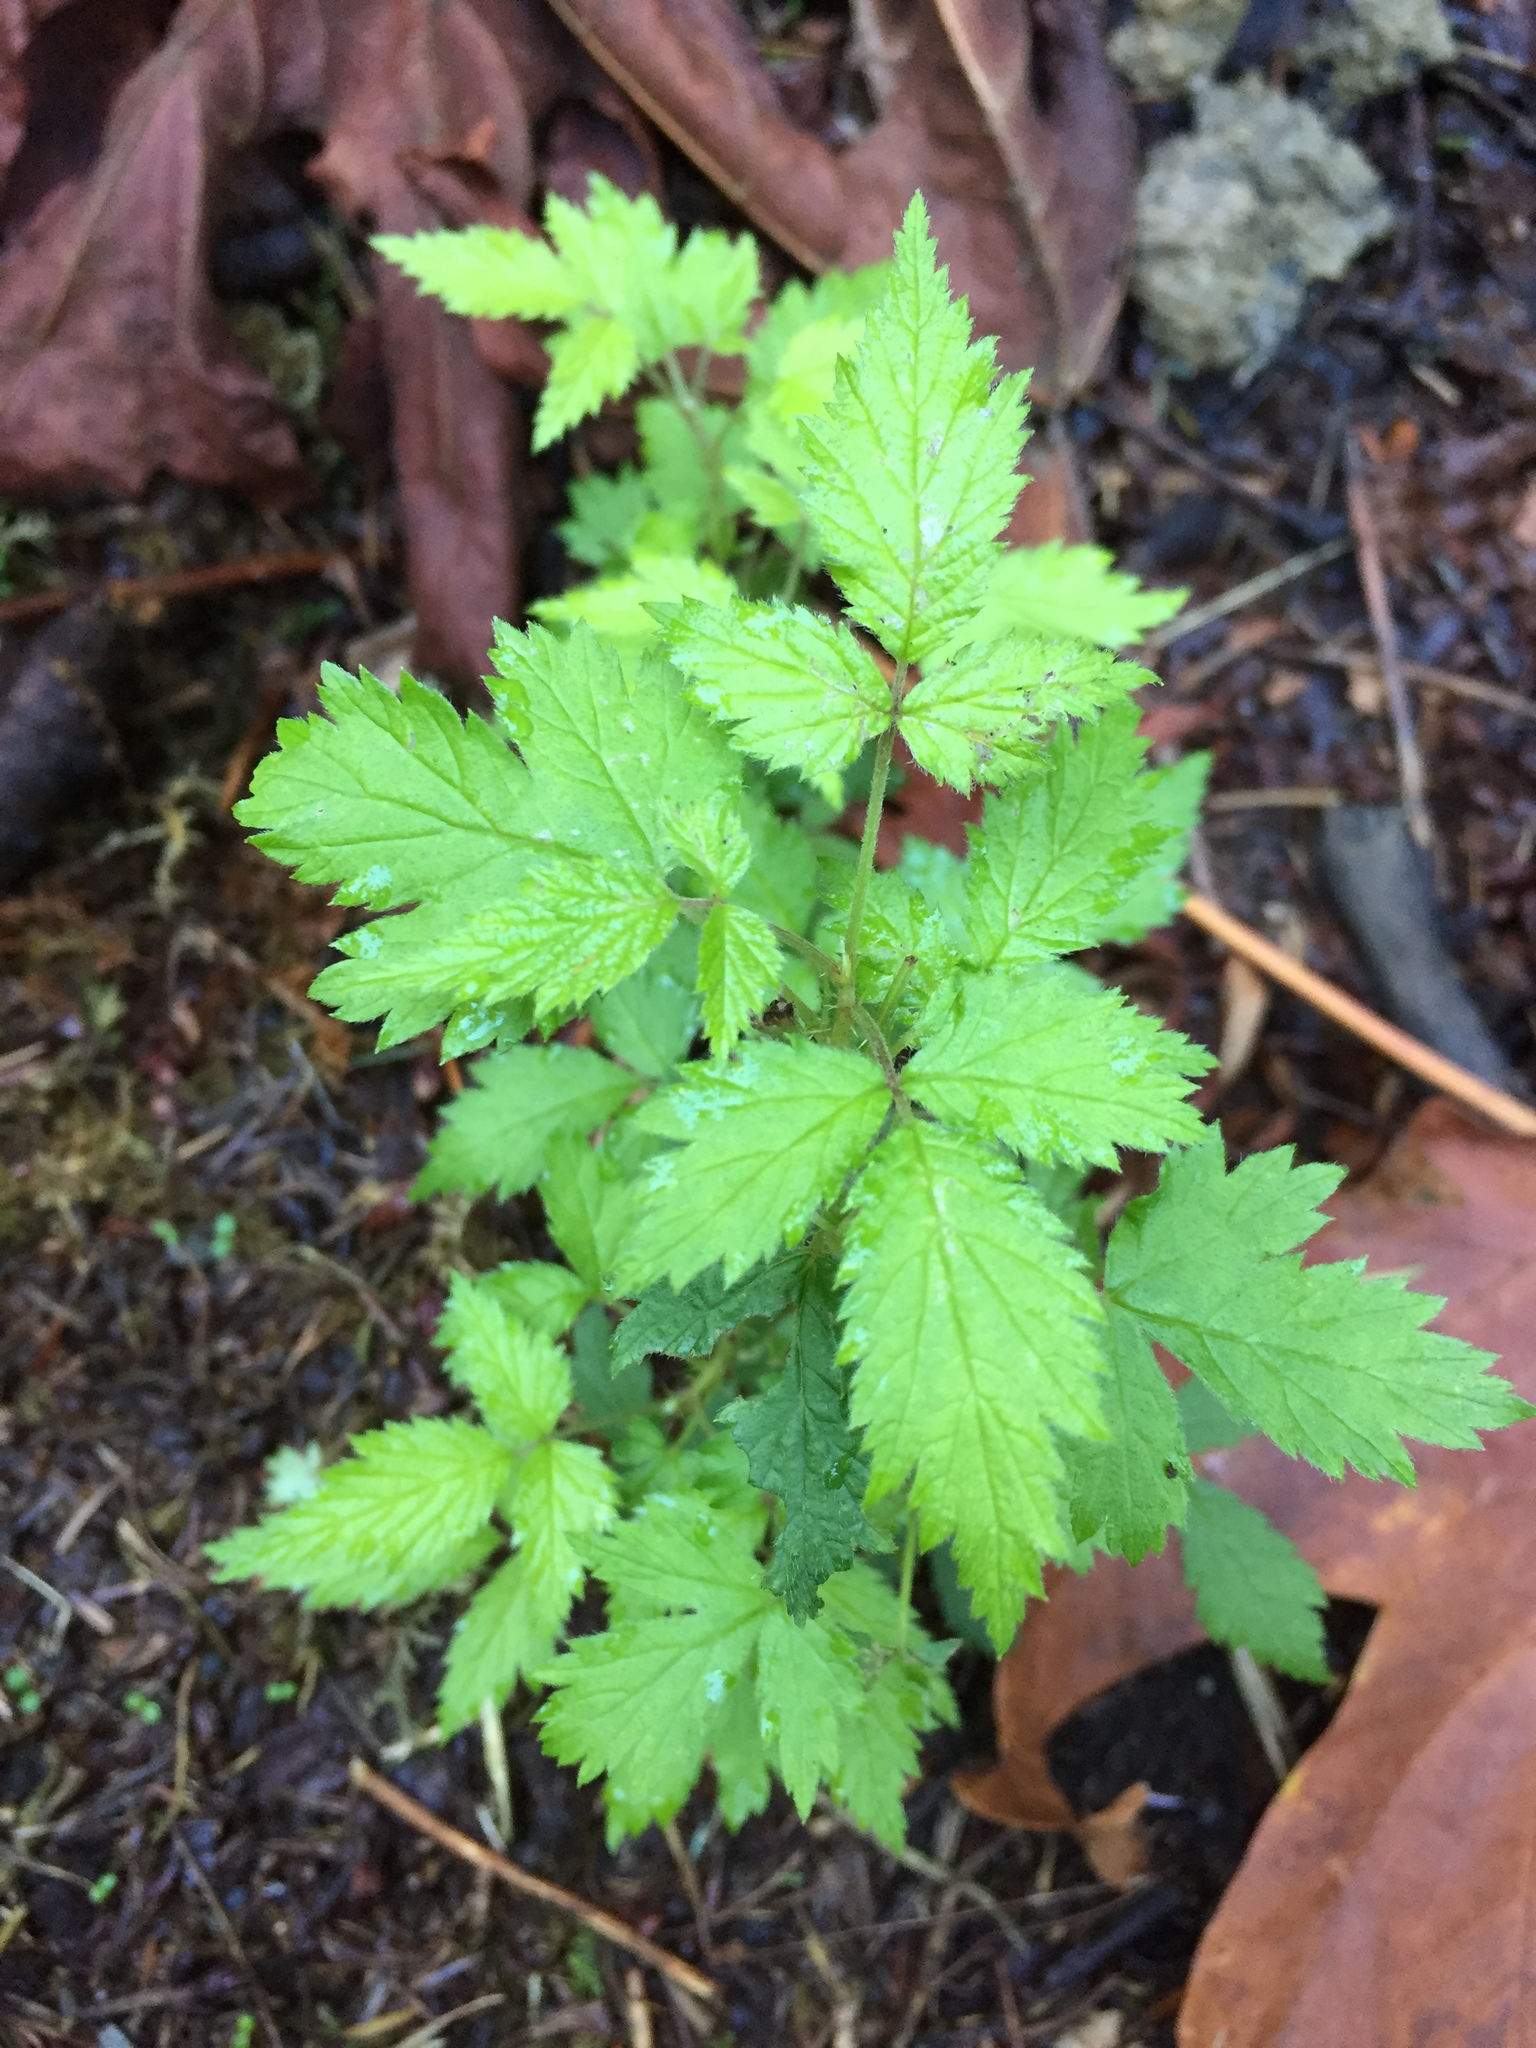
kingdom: Plantae
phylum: Tracheophyta
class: Magnoliopsida
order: Rosales
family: Rosaceae
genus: Rubus
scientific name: Rubus spectabilis
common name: Salmonberry
